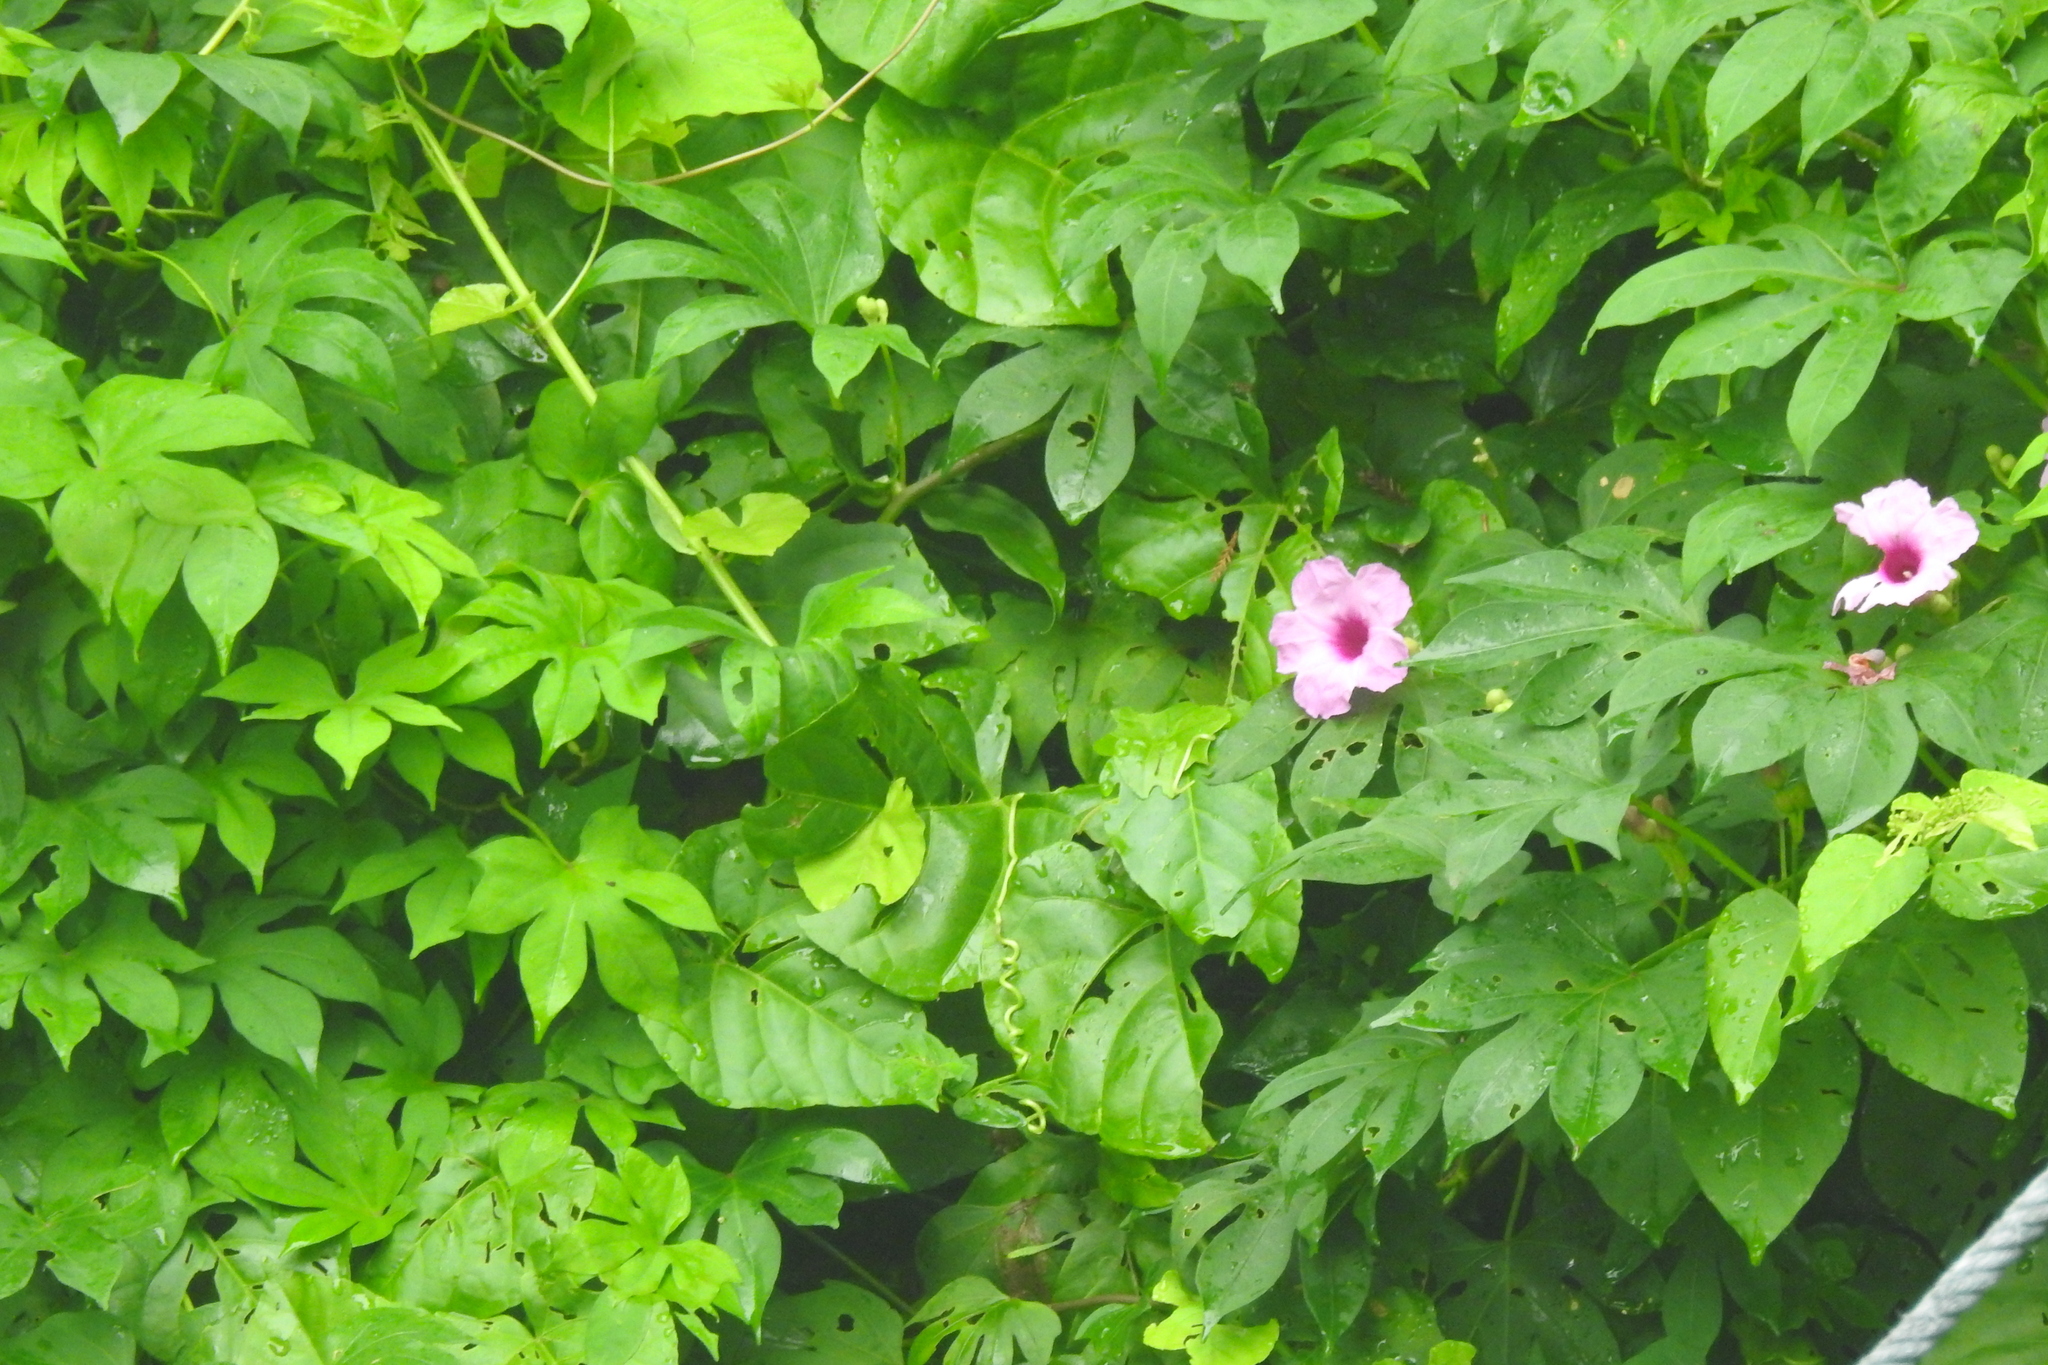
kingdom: Plantae
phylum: Tracheophyta
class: Magnoliopsida
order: Solanales
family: Convolvulaceae
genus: Ipomoea
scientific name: Ipomoea mauritiana
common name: Mauritanian convolvulus
